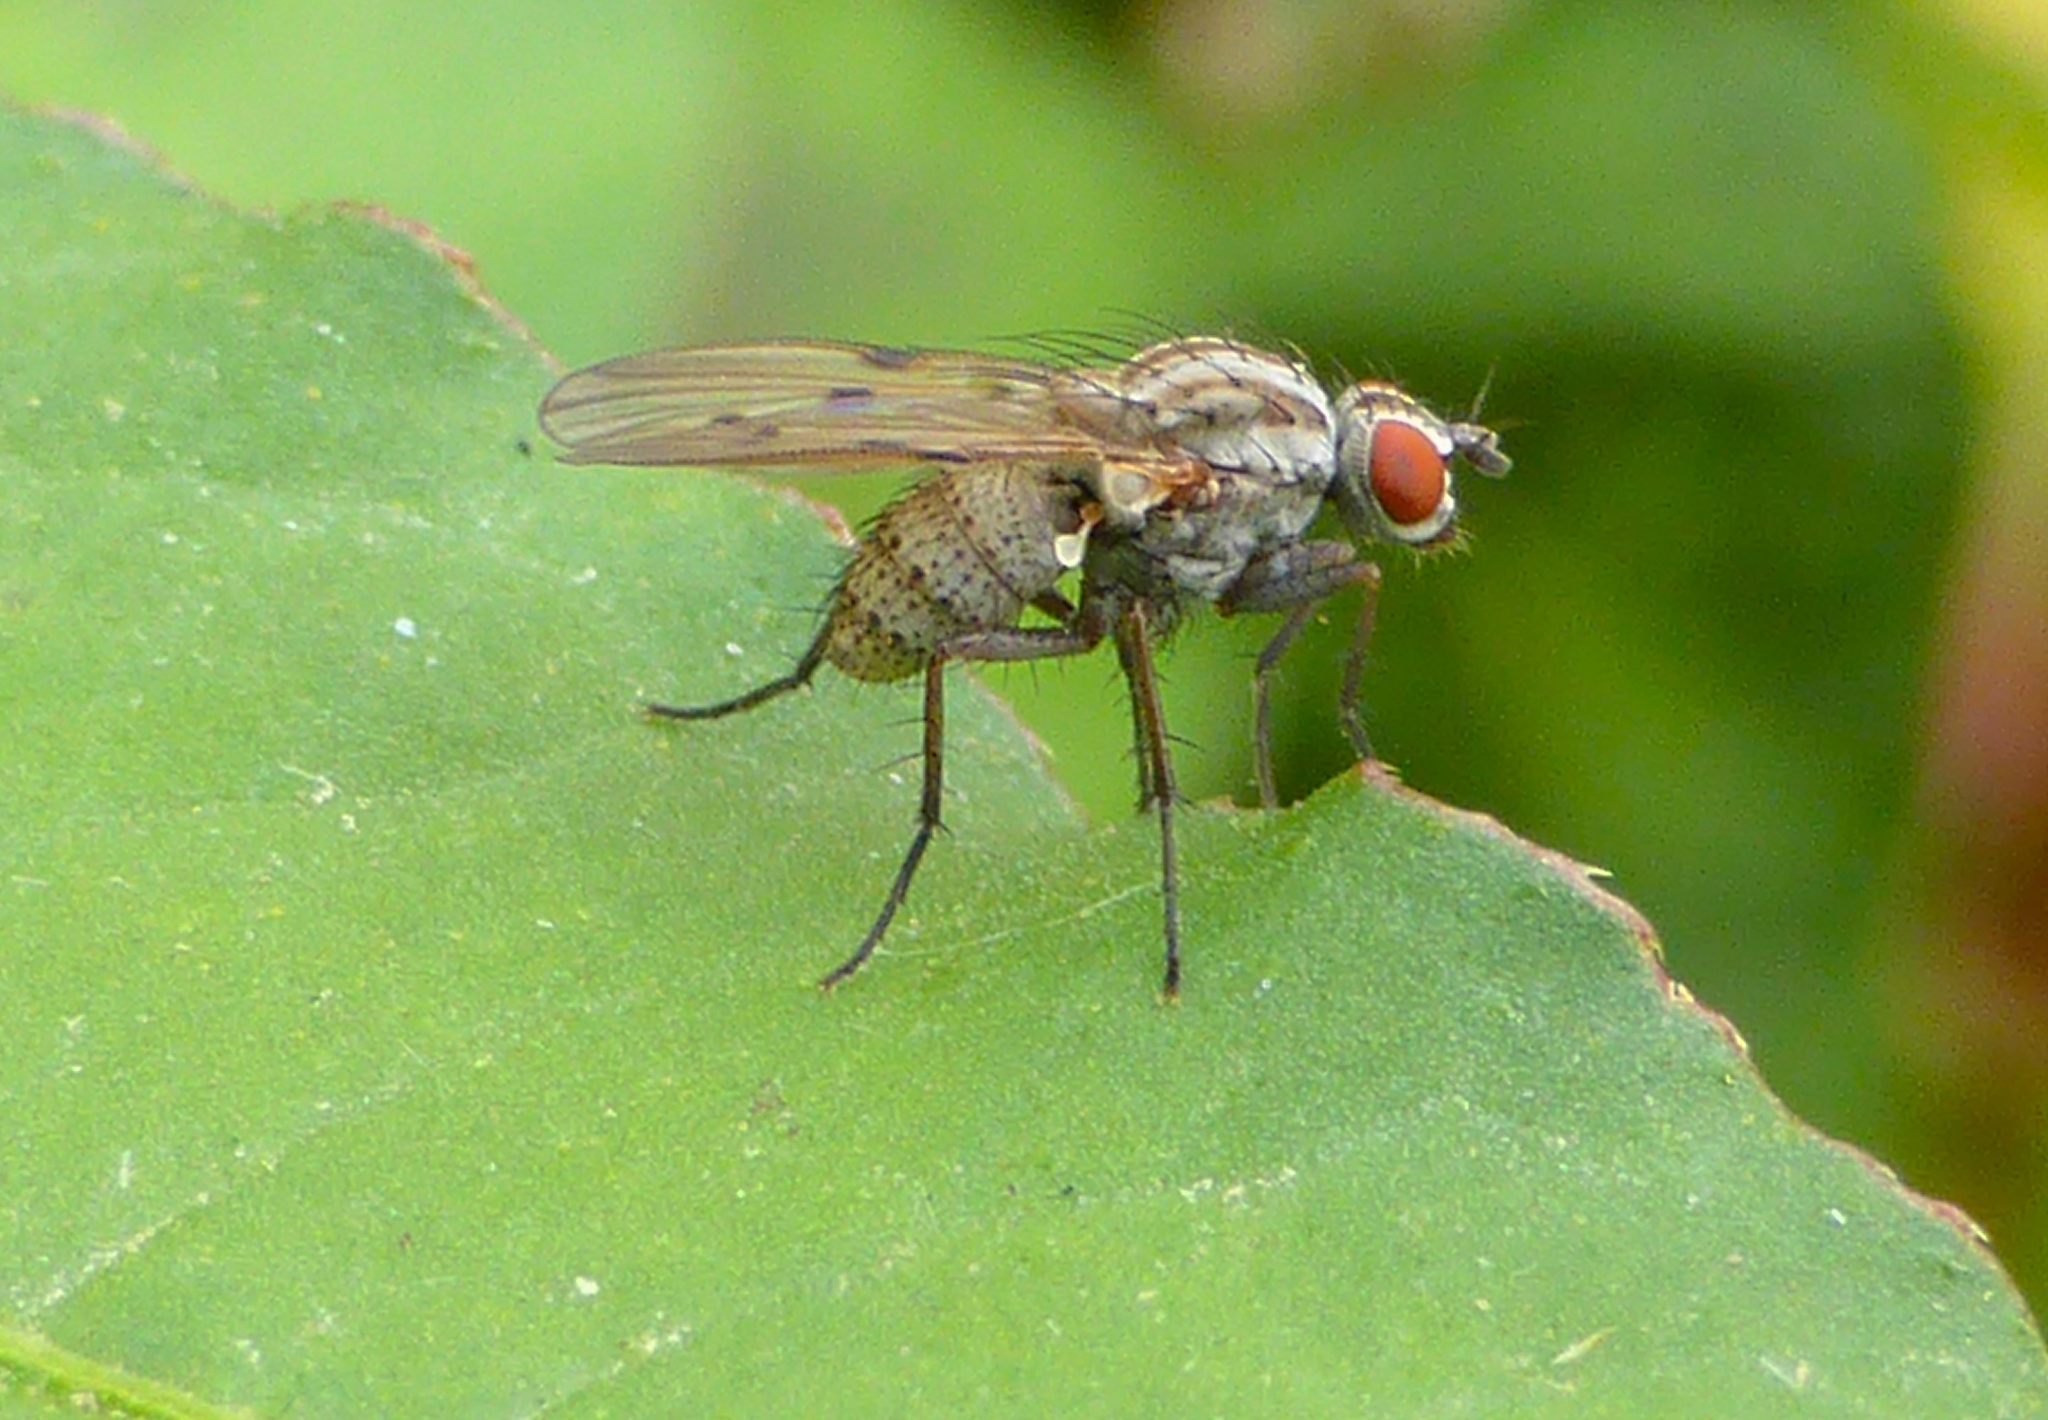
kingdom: Animalia
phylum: Arthropoda
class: Insecta
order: Diptera
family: Anthomyiidae
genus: Anthomyia
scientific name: Anthomyia punctipennis
